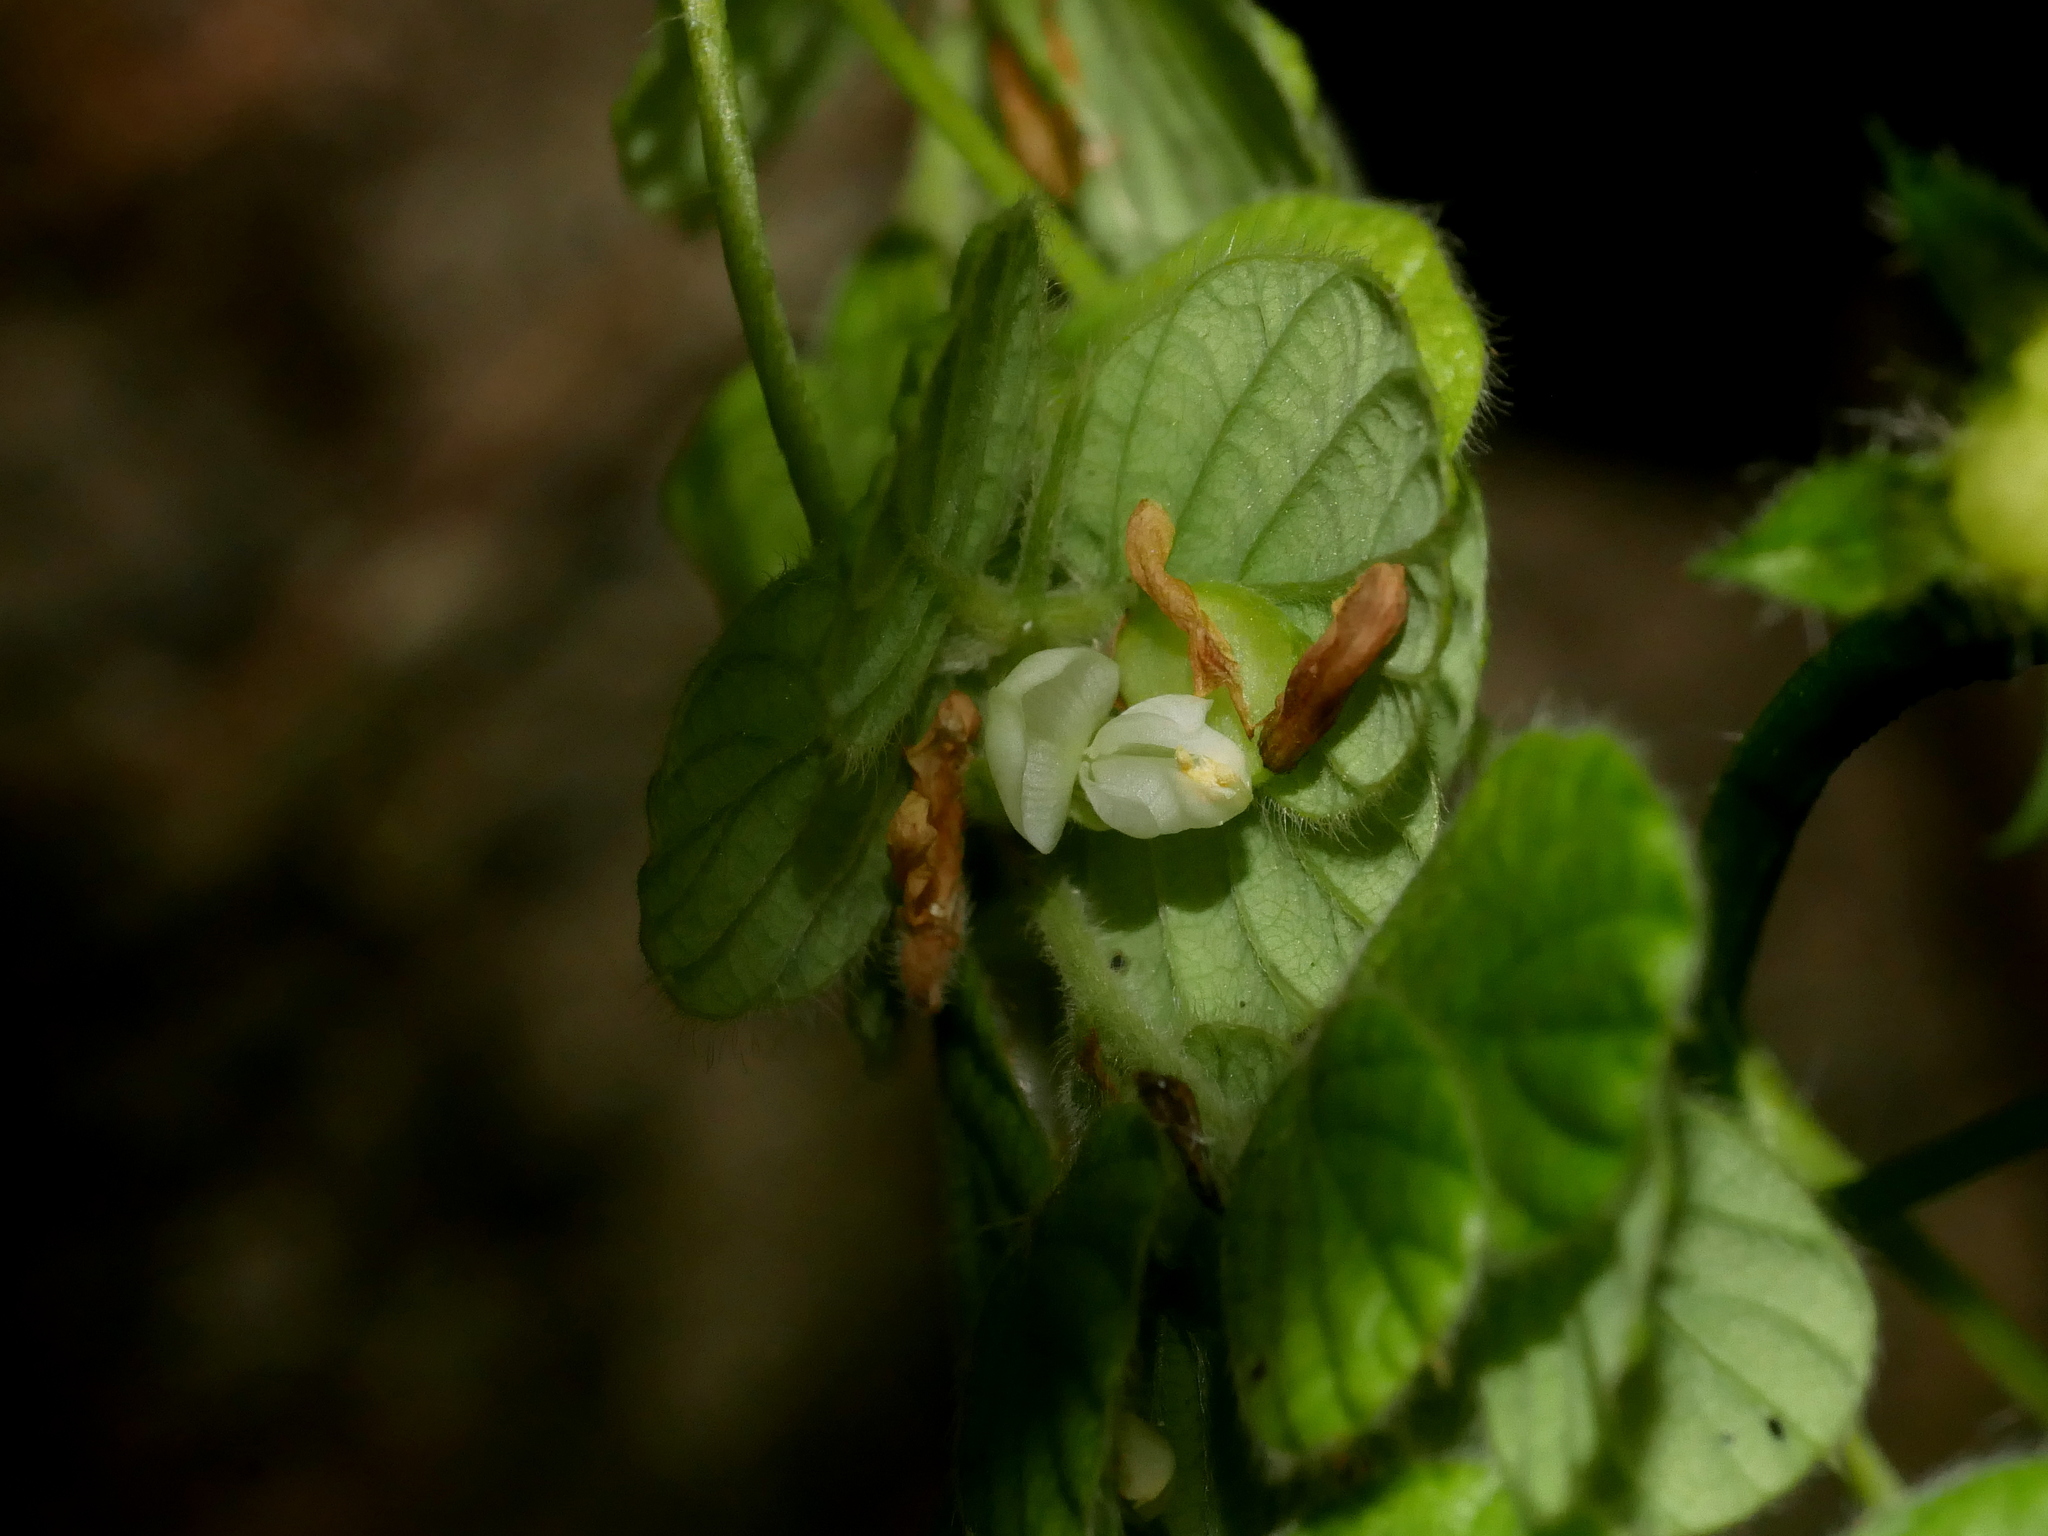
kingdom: Plantae
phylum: Tracheophyta
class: Magnoliopsida
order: Fabales
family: Fabaceae
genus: Phyllodium
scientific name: Phyllodium pulchellum
